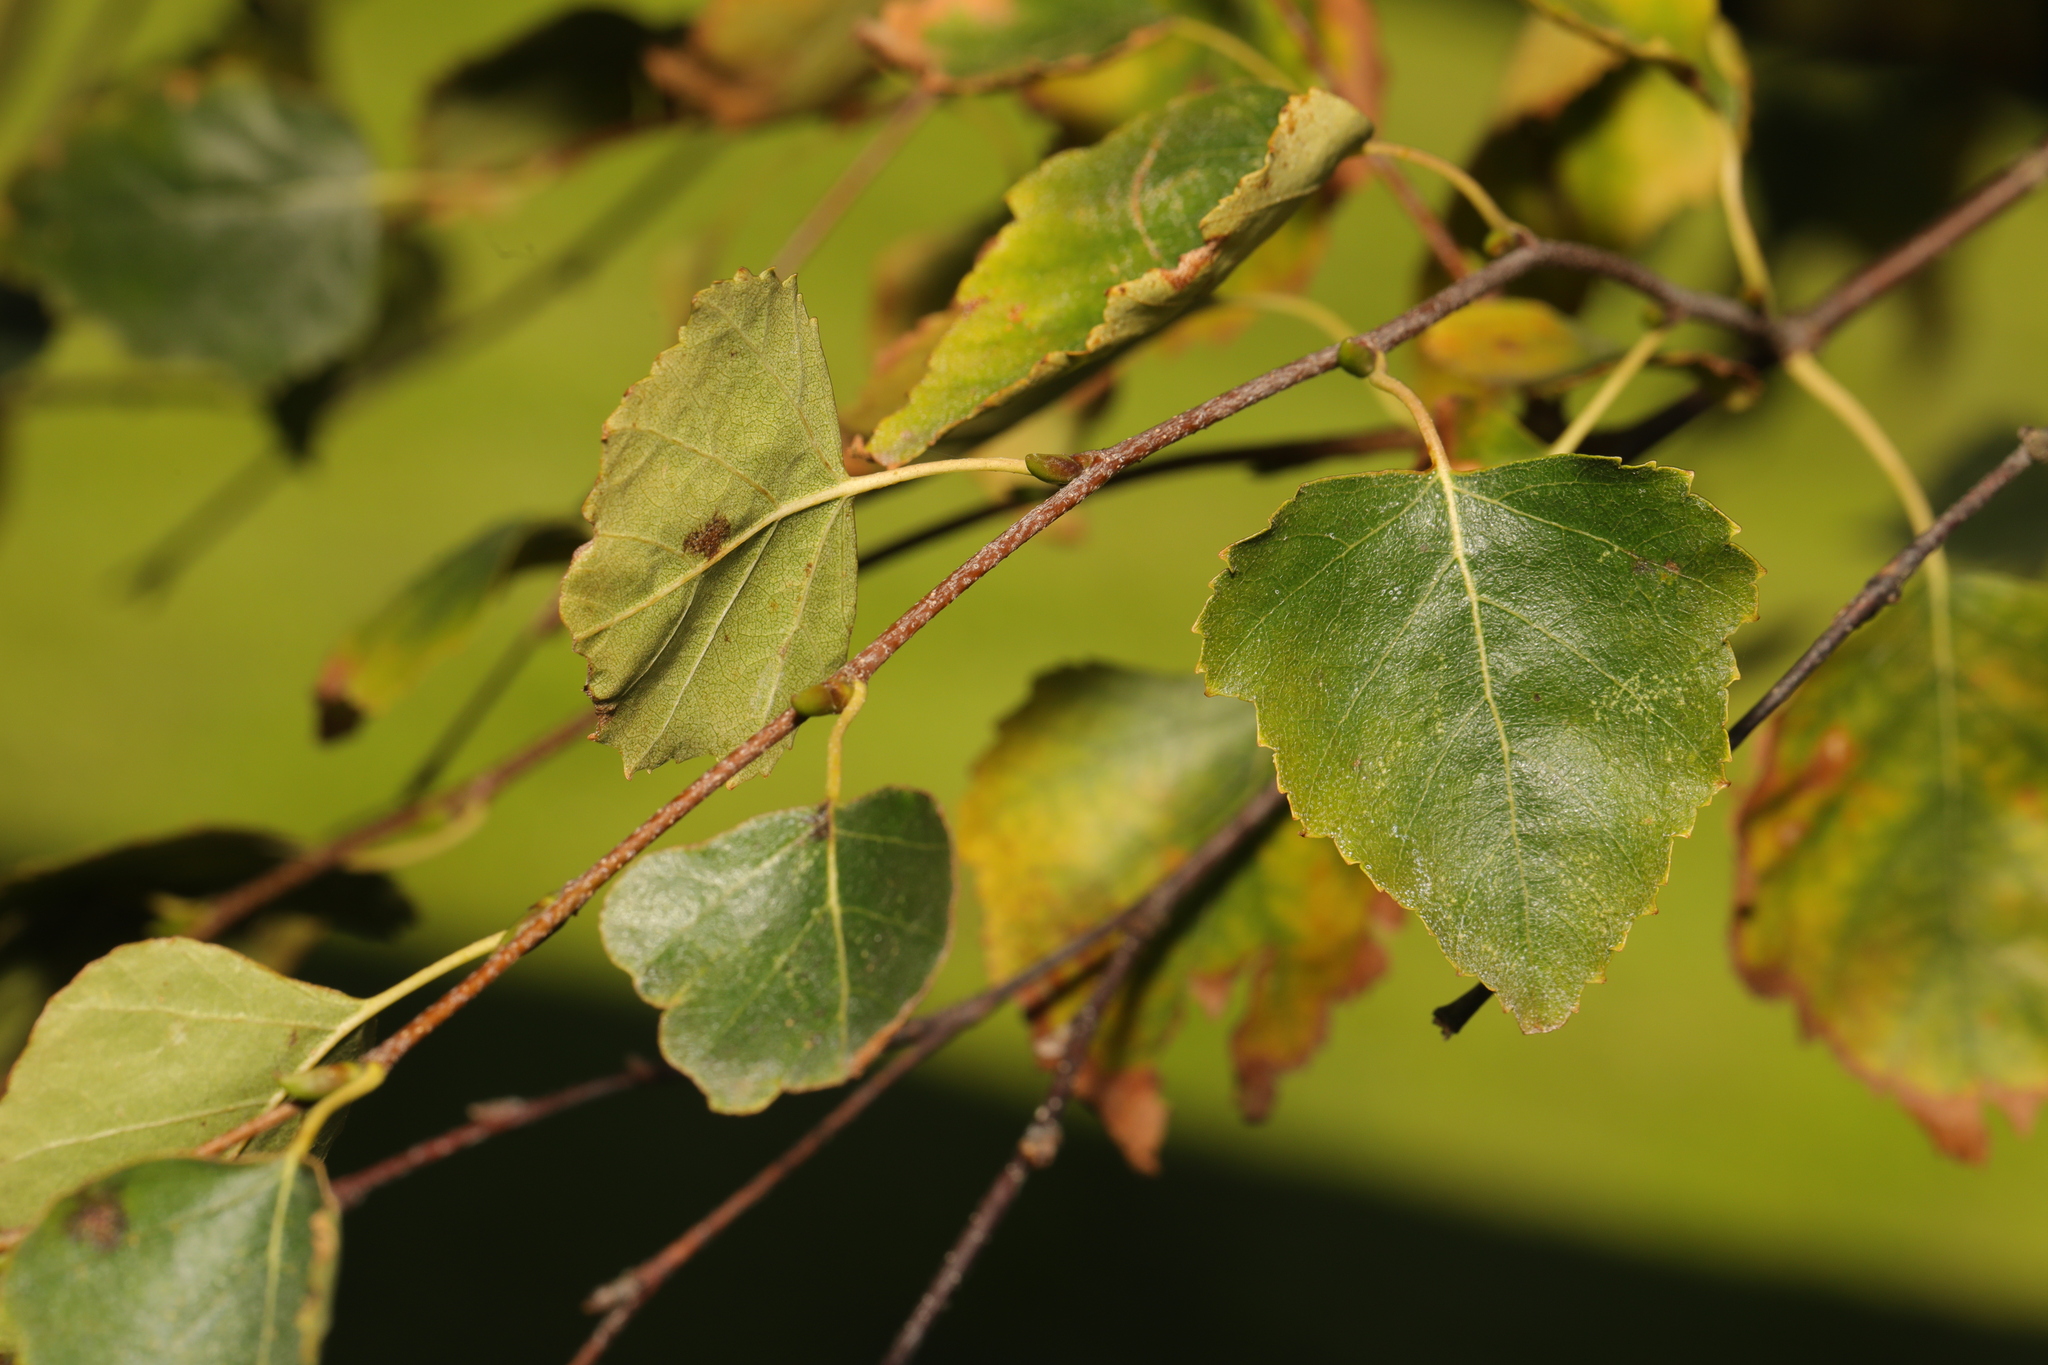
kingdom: Plantae
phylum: Tracheophyta
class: Magnoliopsida
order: Fagales
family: Betulaceae
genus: Betula
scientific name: Betula pendula
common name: Silver birch
